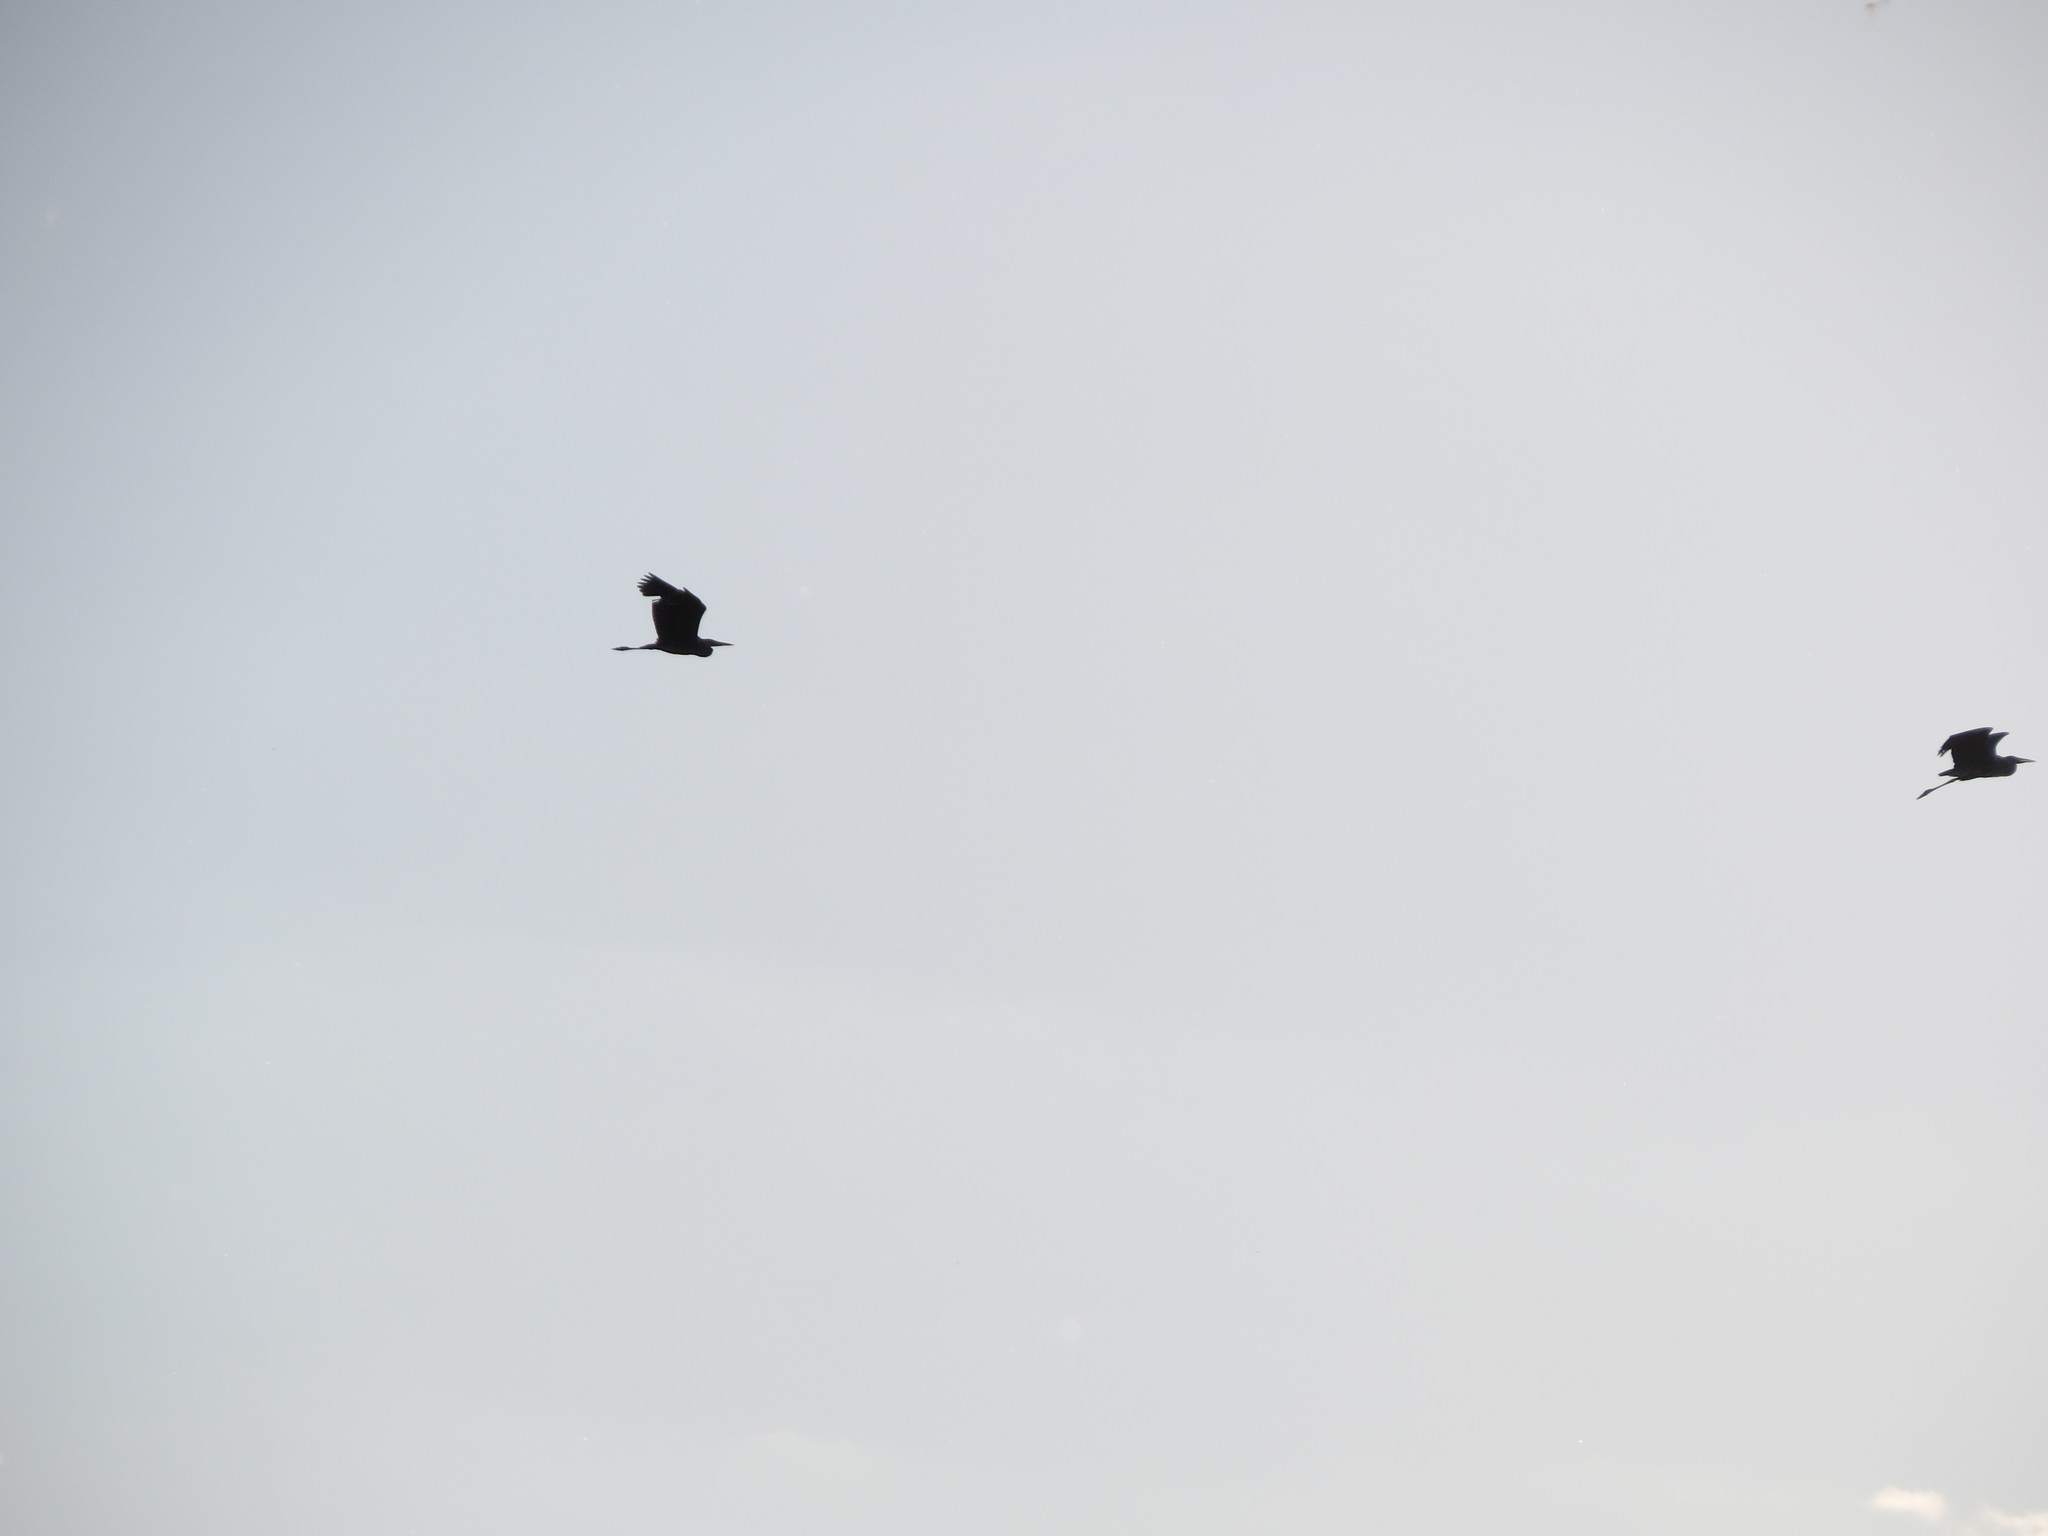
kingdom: Animalia
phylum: Chordata
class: Aves
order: Pelecaniformes
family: Ardeidae
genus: Ardea
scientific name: Ardea cinerea
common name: Grey heron
